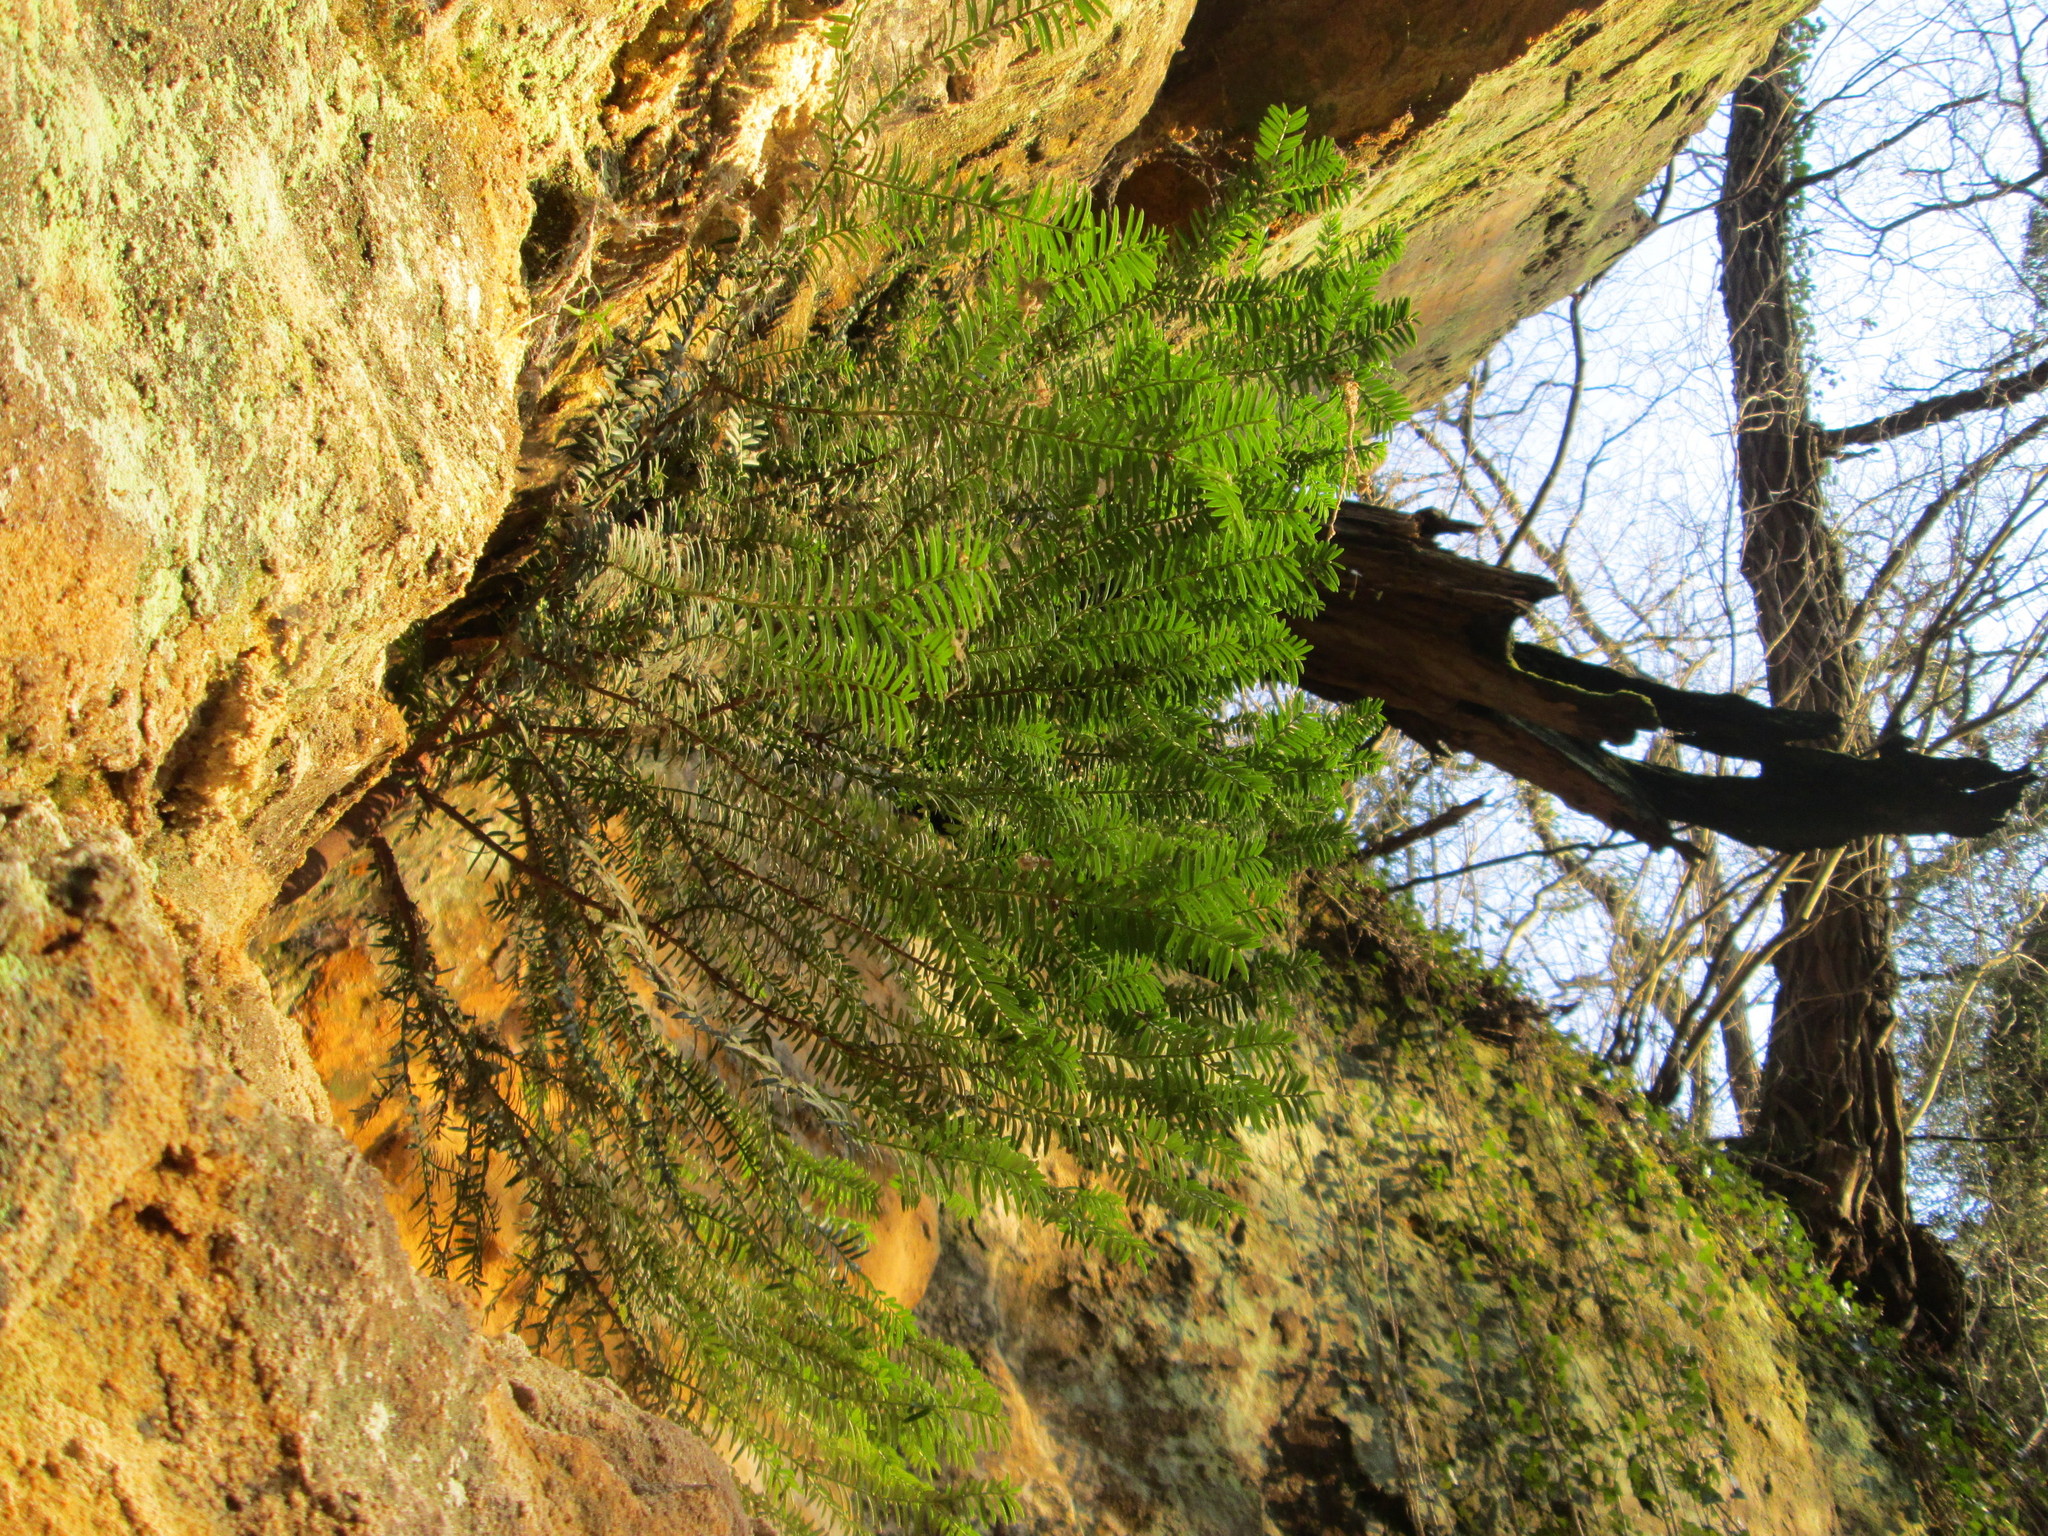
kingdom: Plantae
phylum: Tracheophyta
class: Pinopsida
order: Pinales
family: Taxaceae
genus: Taxus
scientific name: Taxus baccata
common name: Yew
